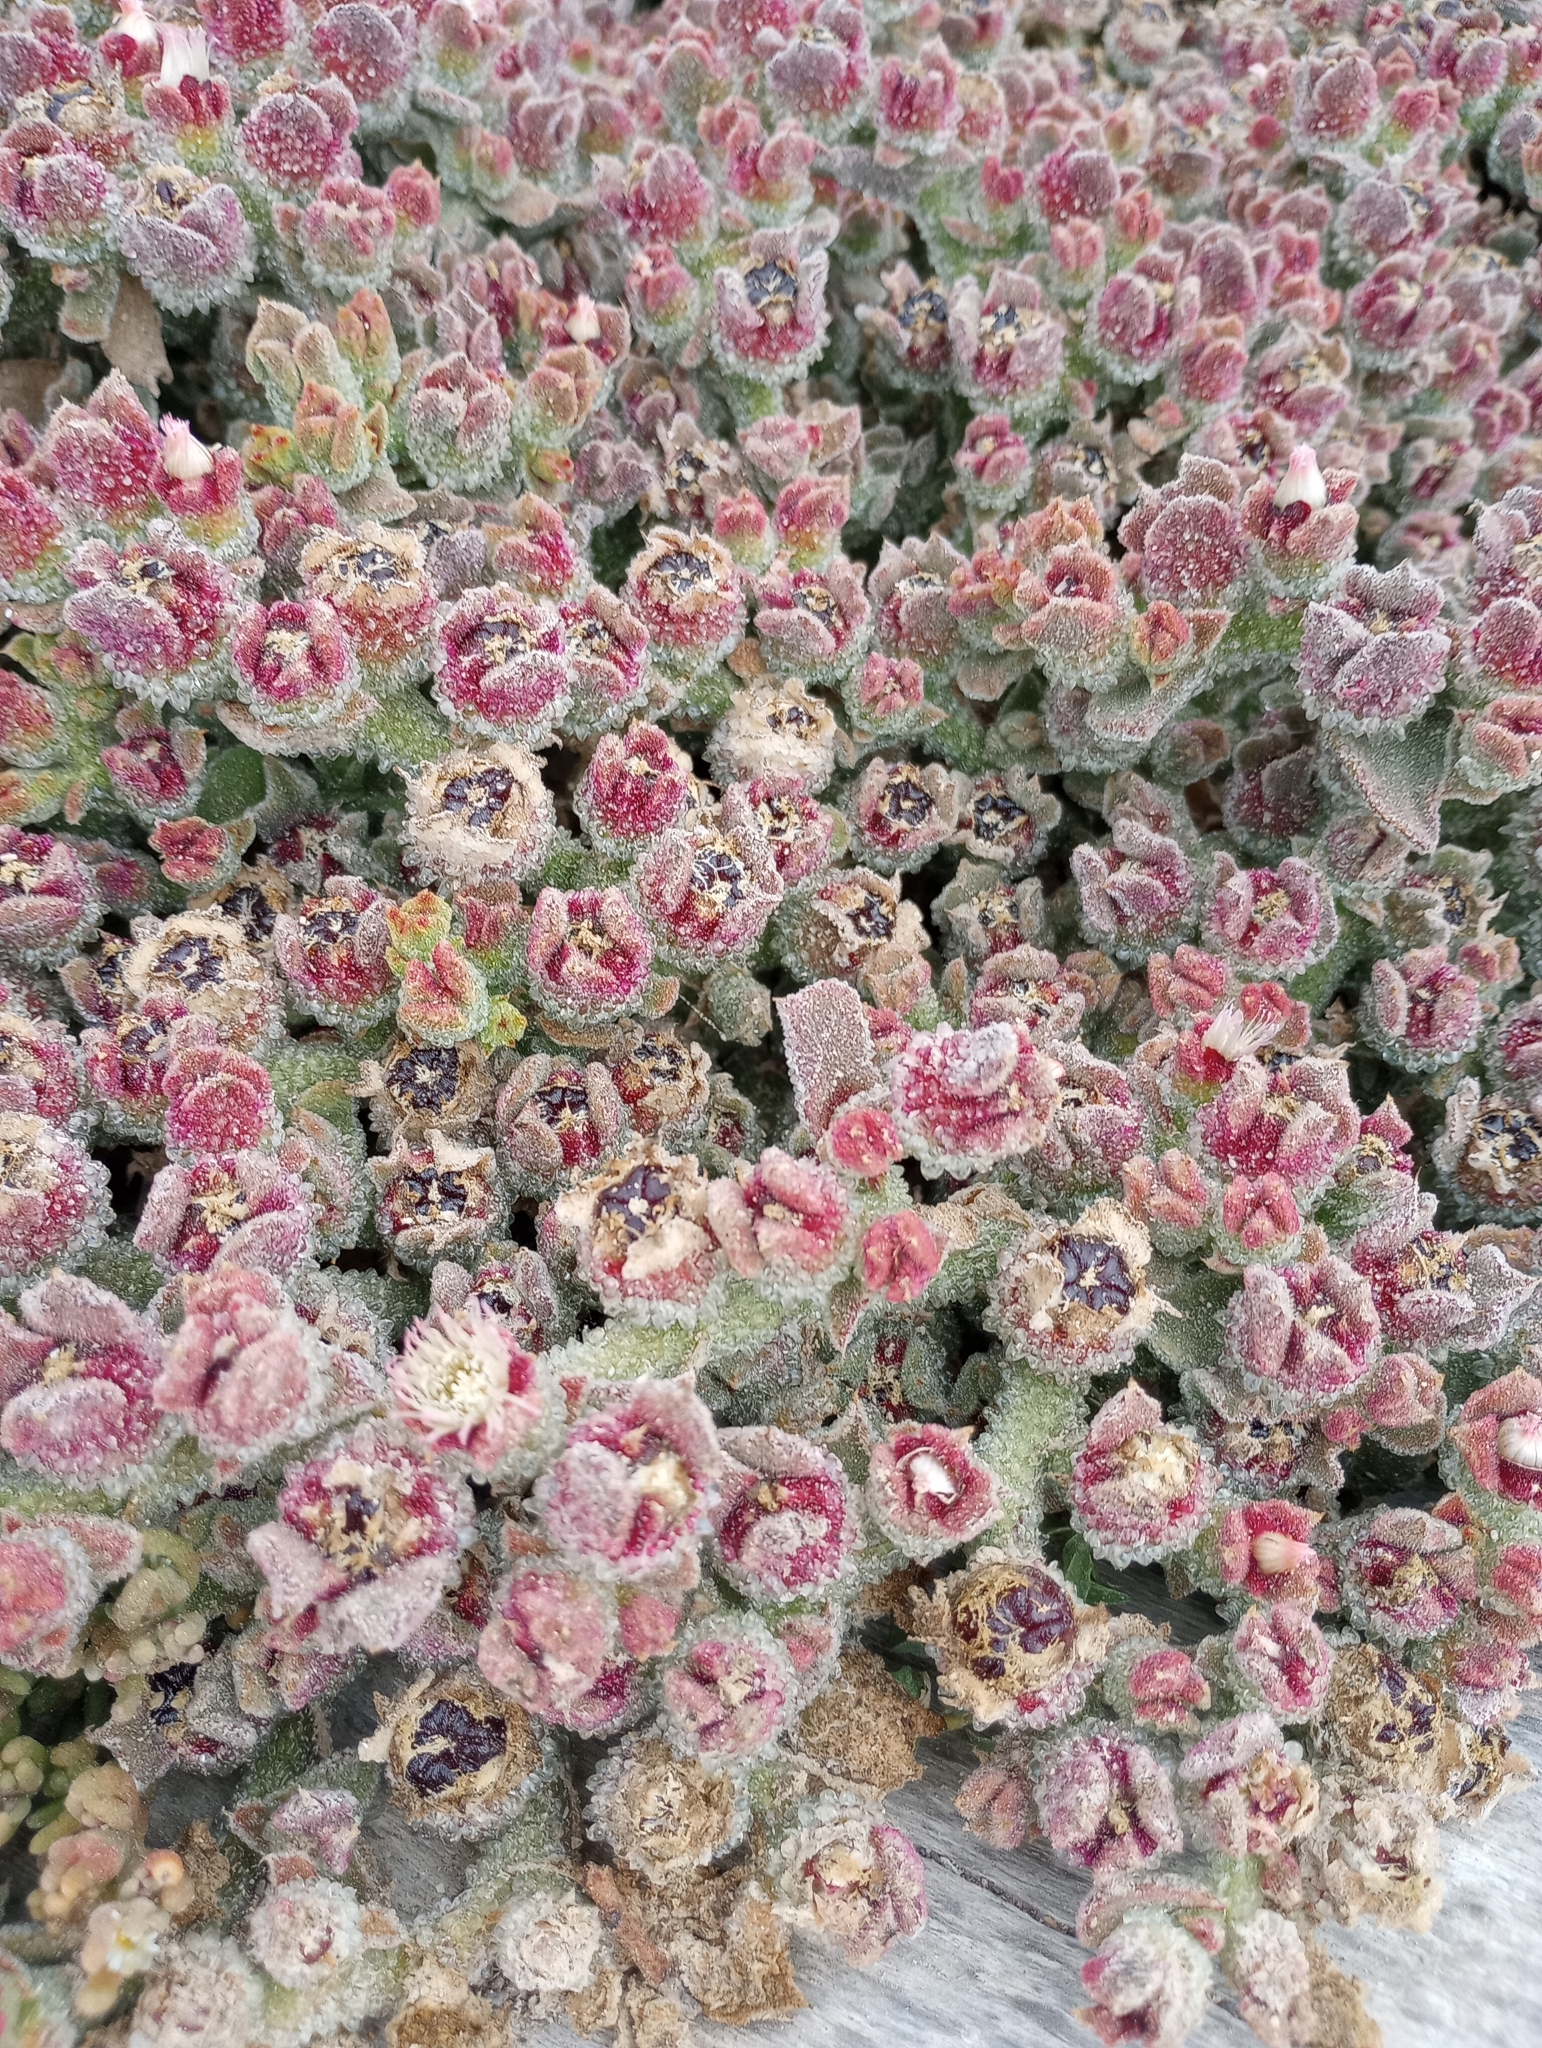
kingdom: Plantae
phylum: Tracheophyta
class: Magnoliopsida
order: Caryophyllales
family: Aizoaceae
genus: Mesembryanthemum
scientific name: Mesembryanthemum crystallinum
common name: Common iceplant
